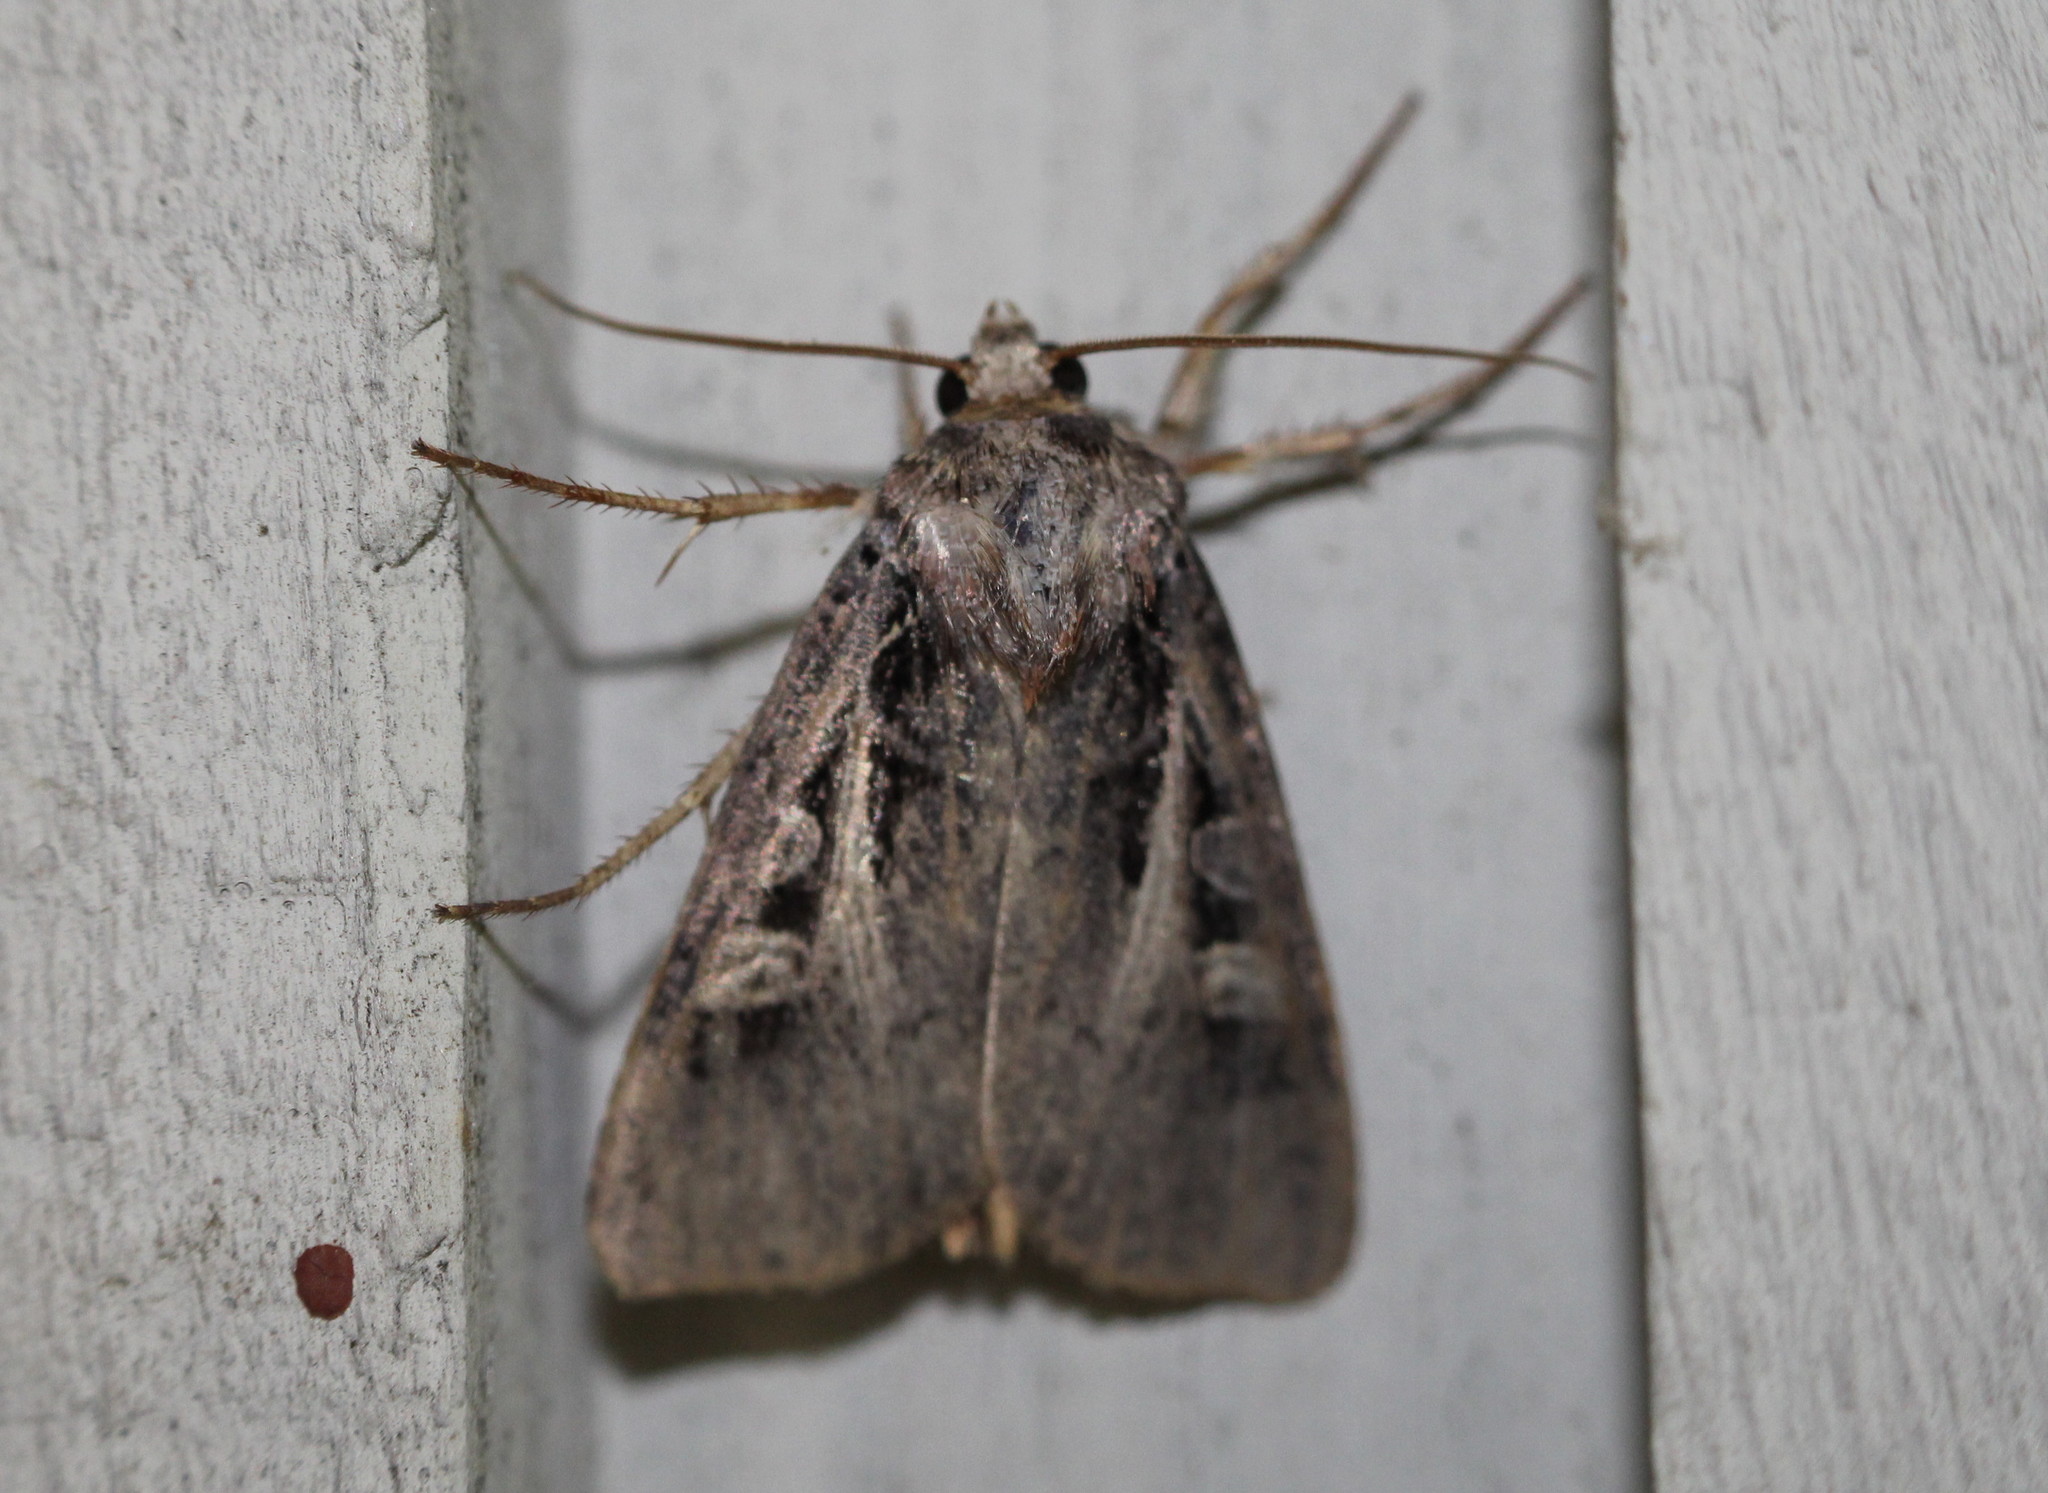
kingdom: Animalia
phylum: Arthropoda
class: Insecta
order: Lepidoptera
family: Noctuidae
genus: Feltia
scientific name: Feltia herilis
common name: Master's dart
